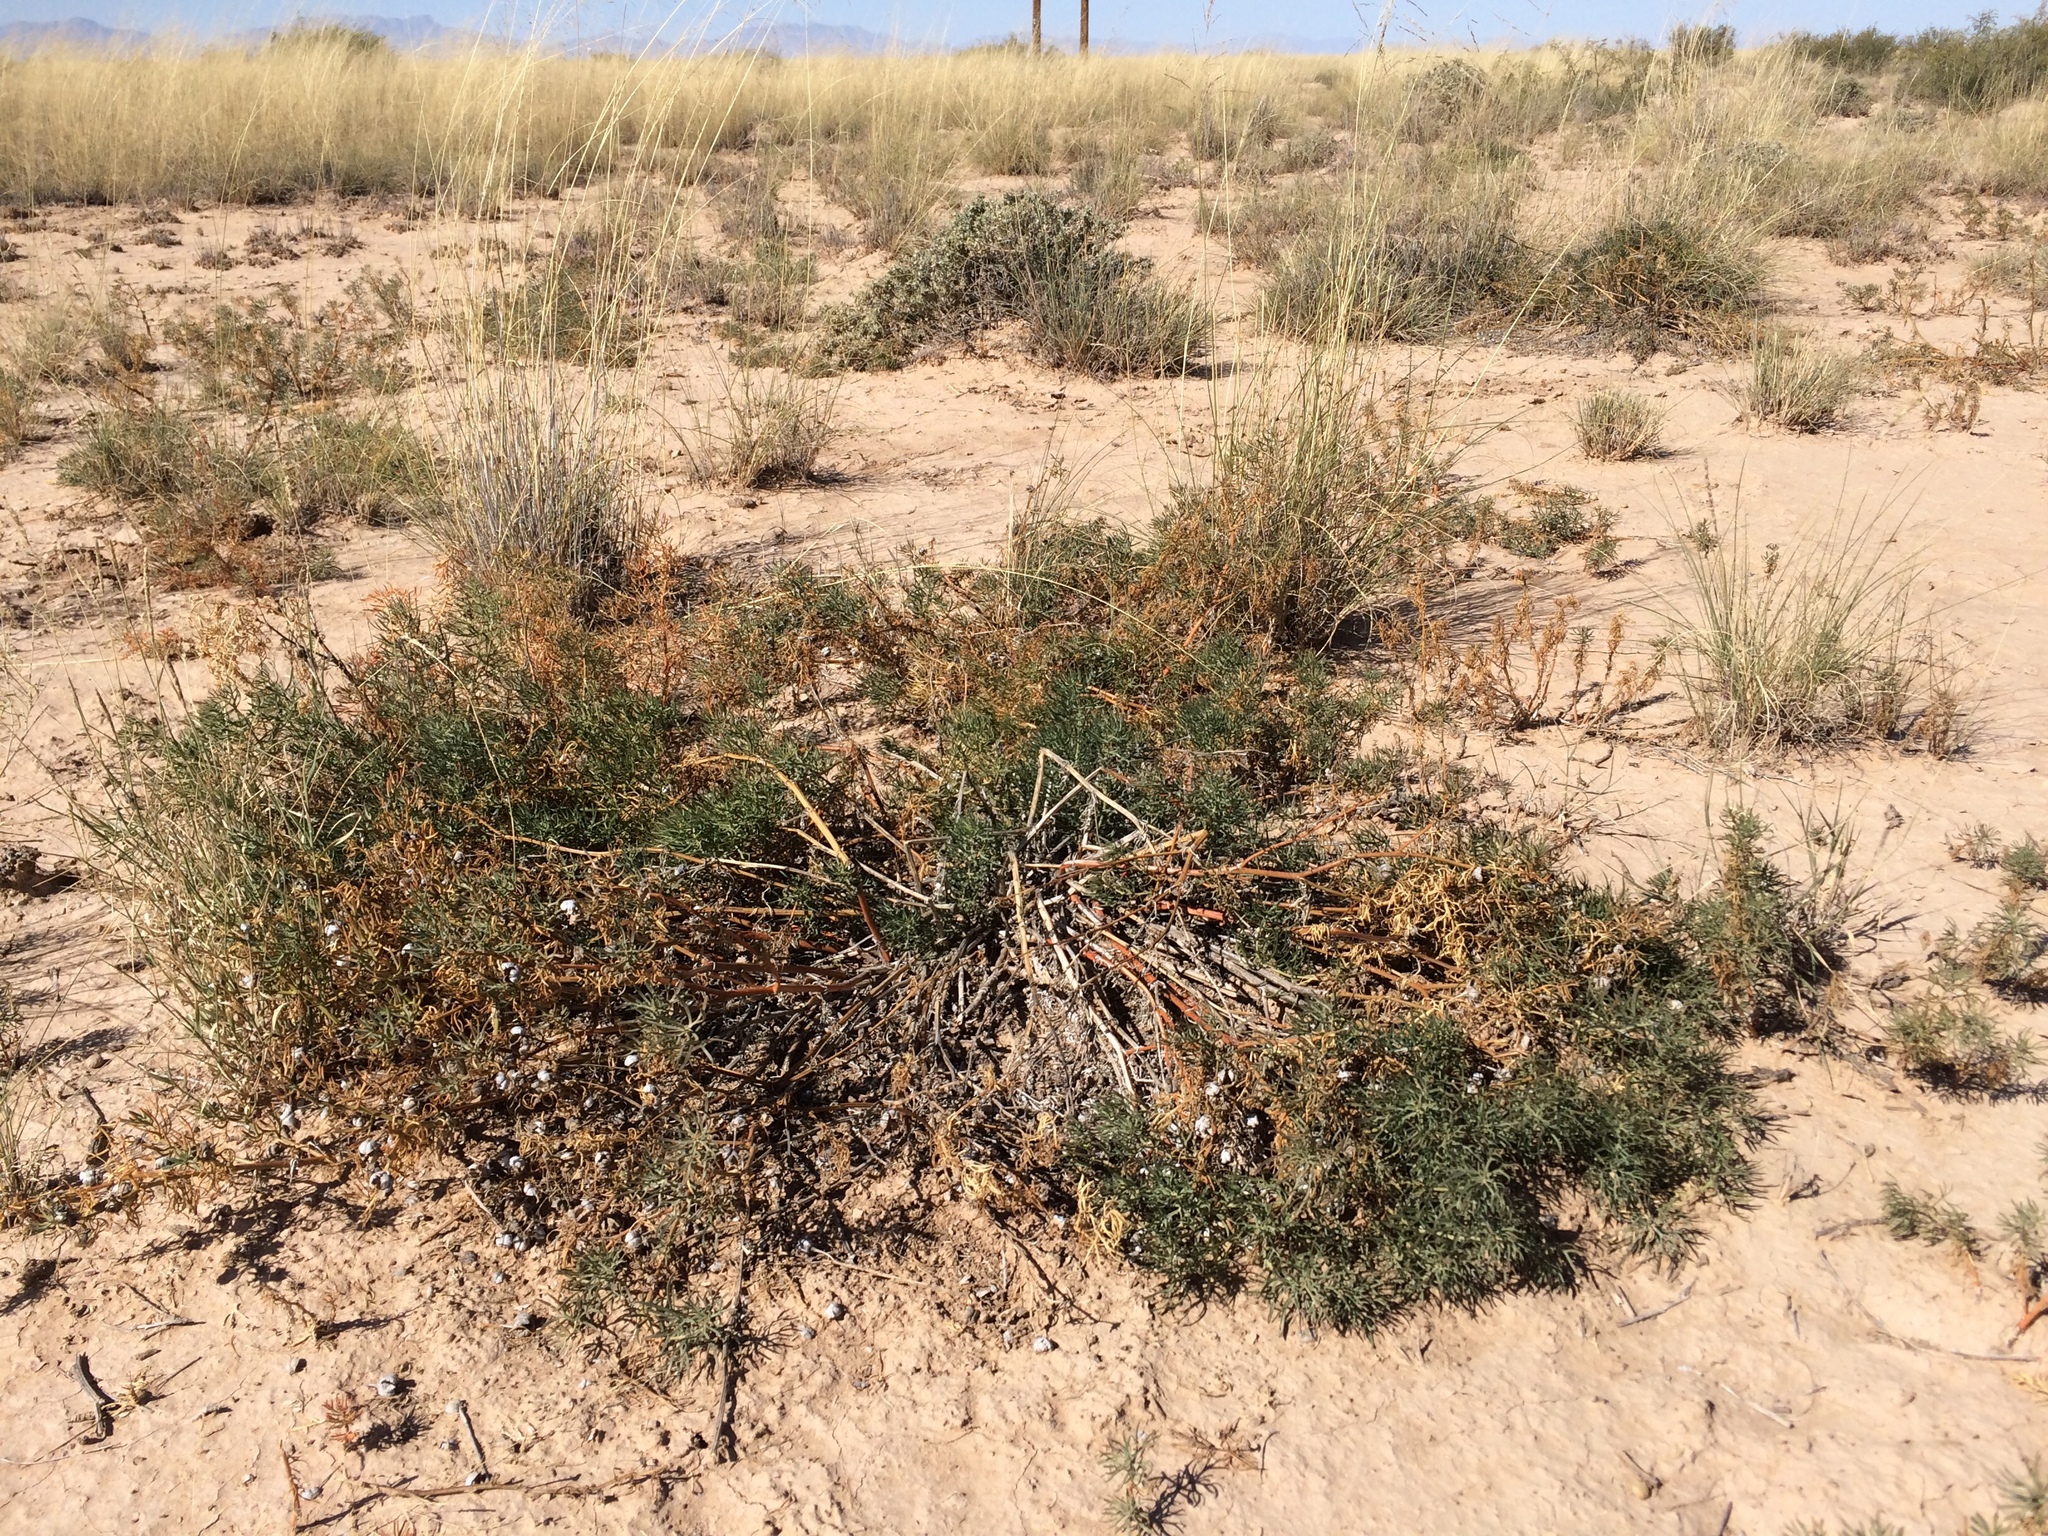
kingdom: Plantae
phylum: Tracheophyta
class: Magnoliopsida
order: Sapindales
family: Tetradiclidaceae
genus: Peganum
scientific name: Peganum harmala
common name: Harmal peganum
